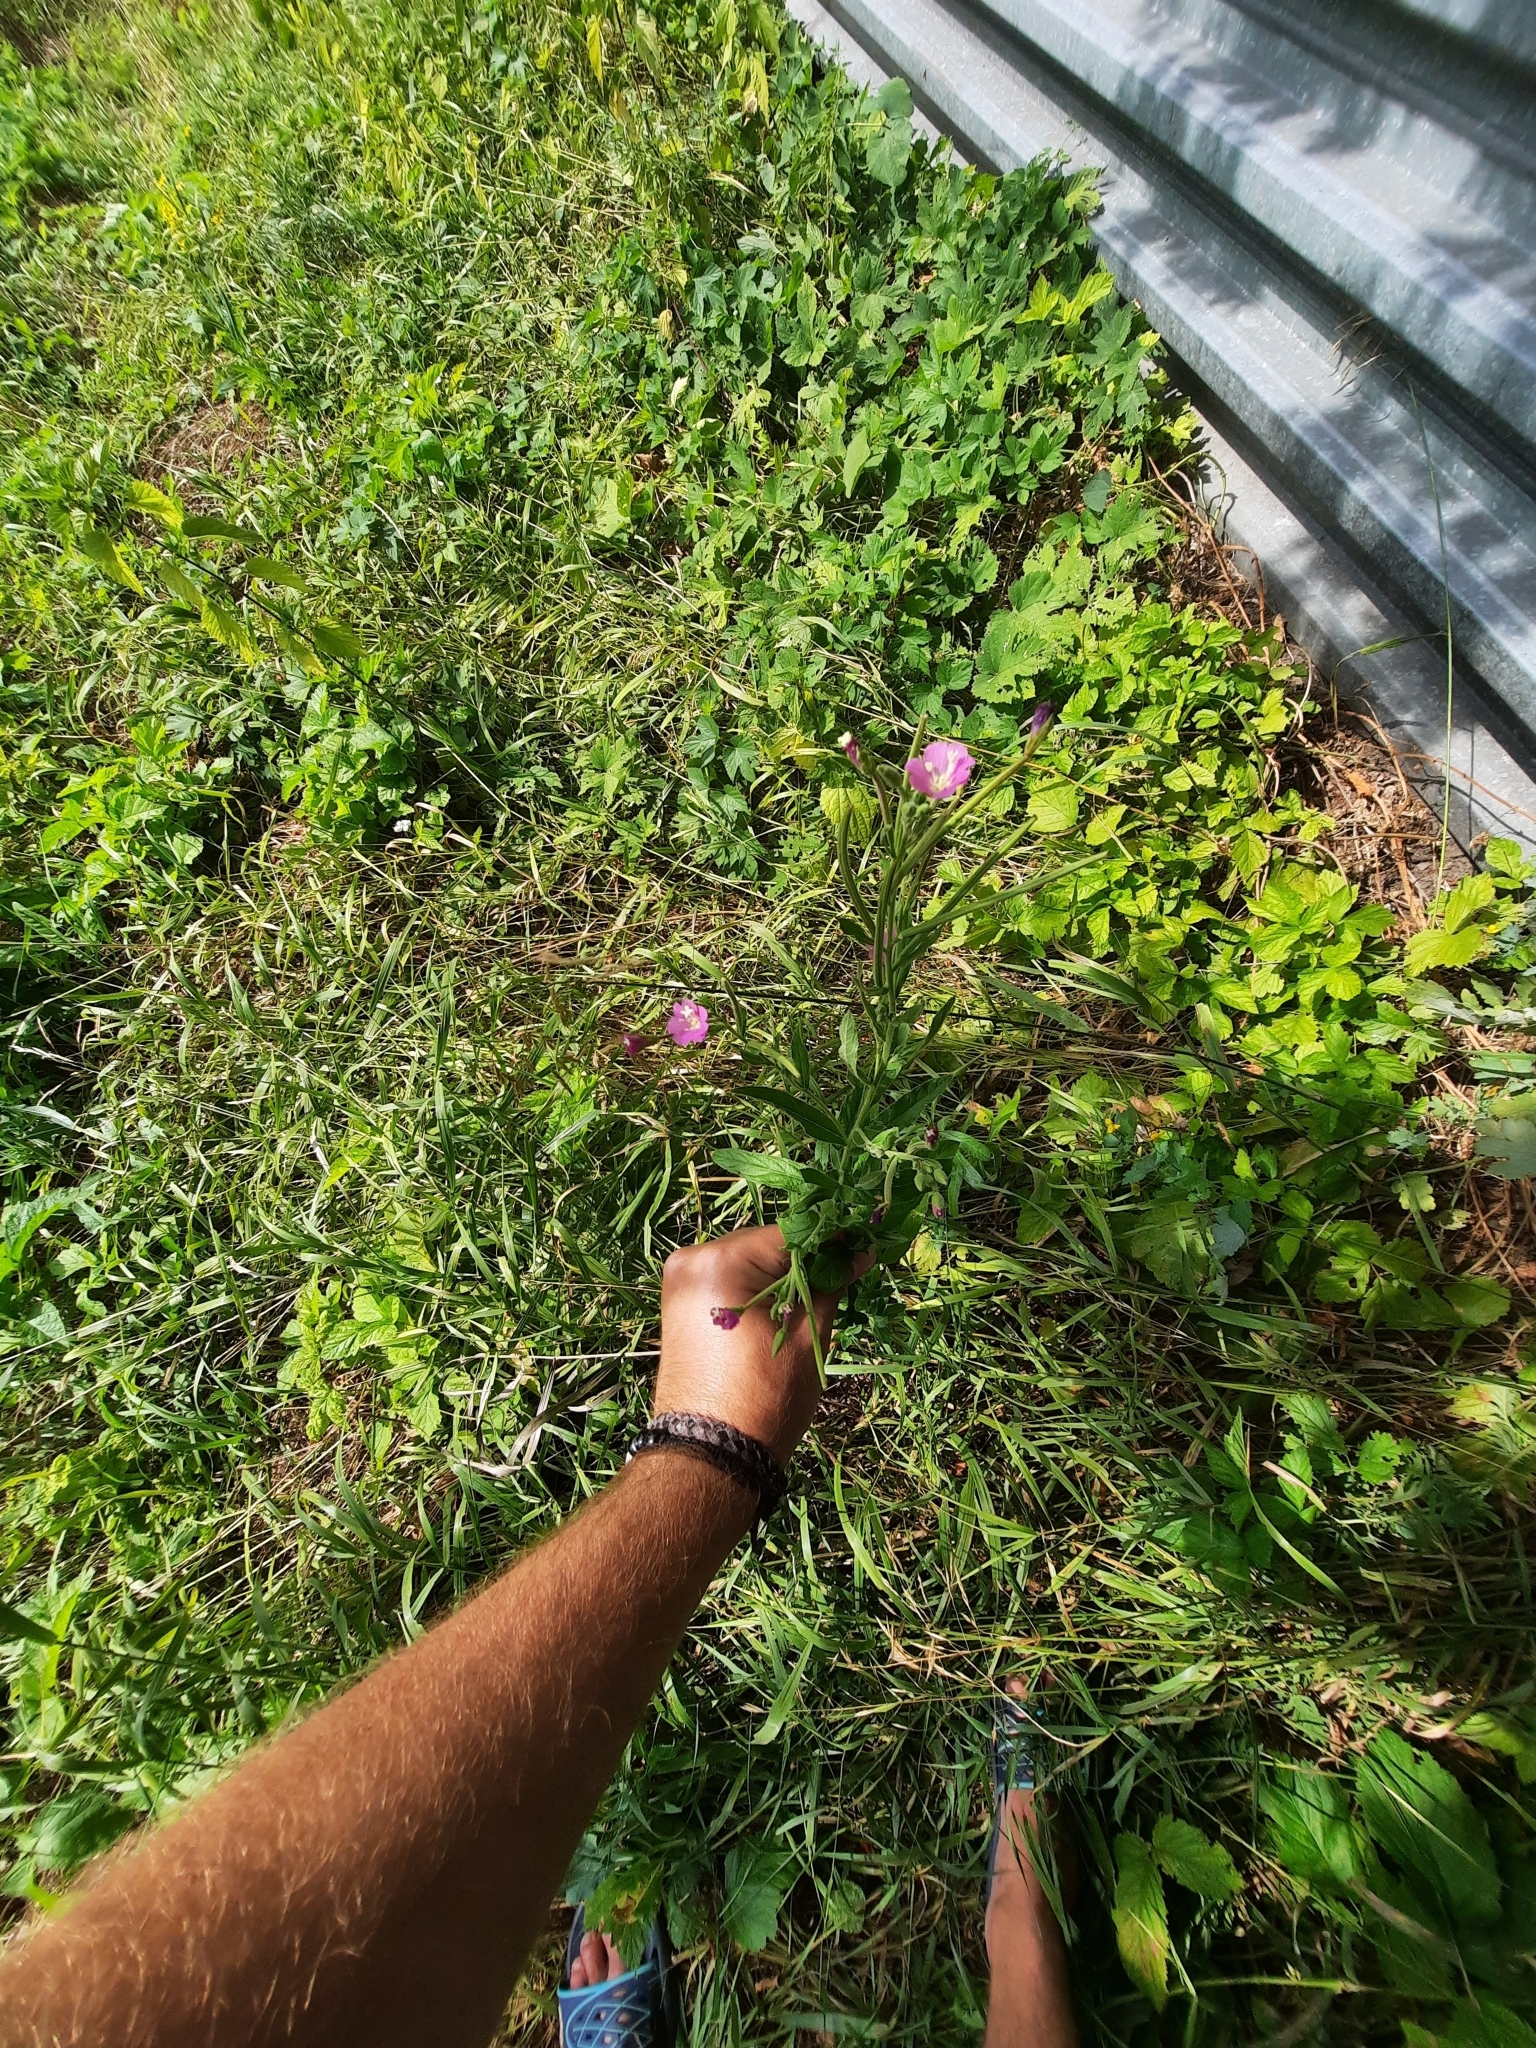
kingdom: Plantae
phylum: Tracheophyta
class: Magnoliopsida
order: Myrtales
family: Onagraceae
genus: Epilobium
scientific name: Epilobium hirsutum
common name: Great willowherb
